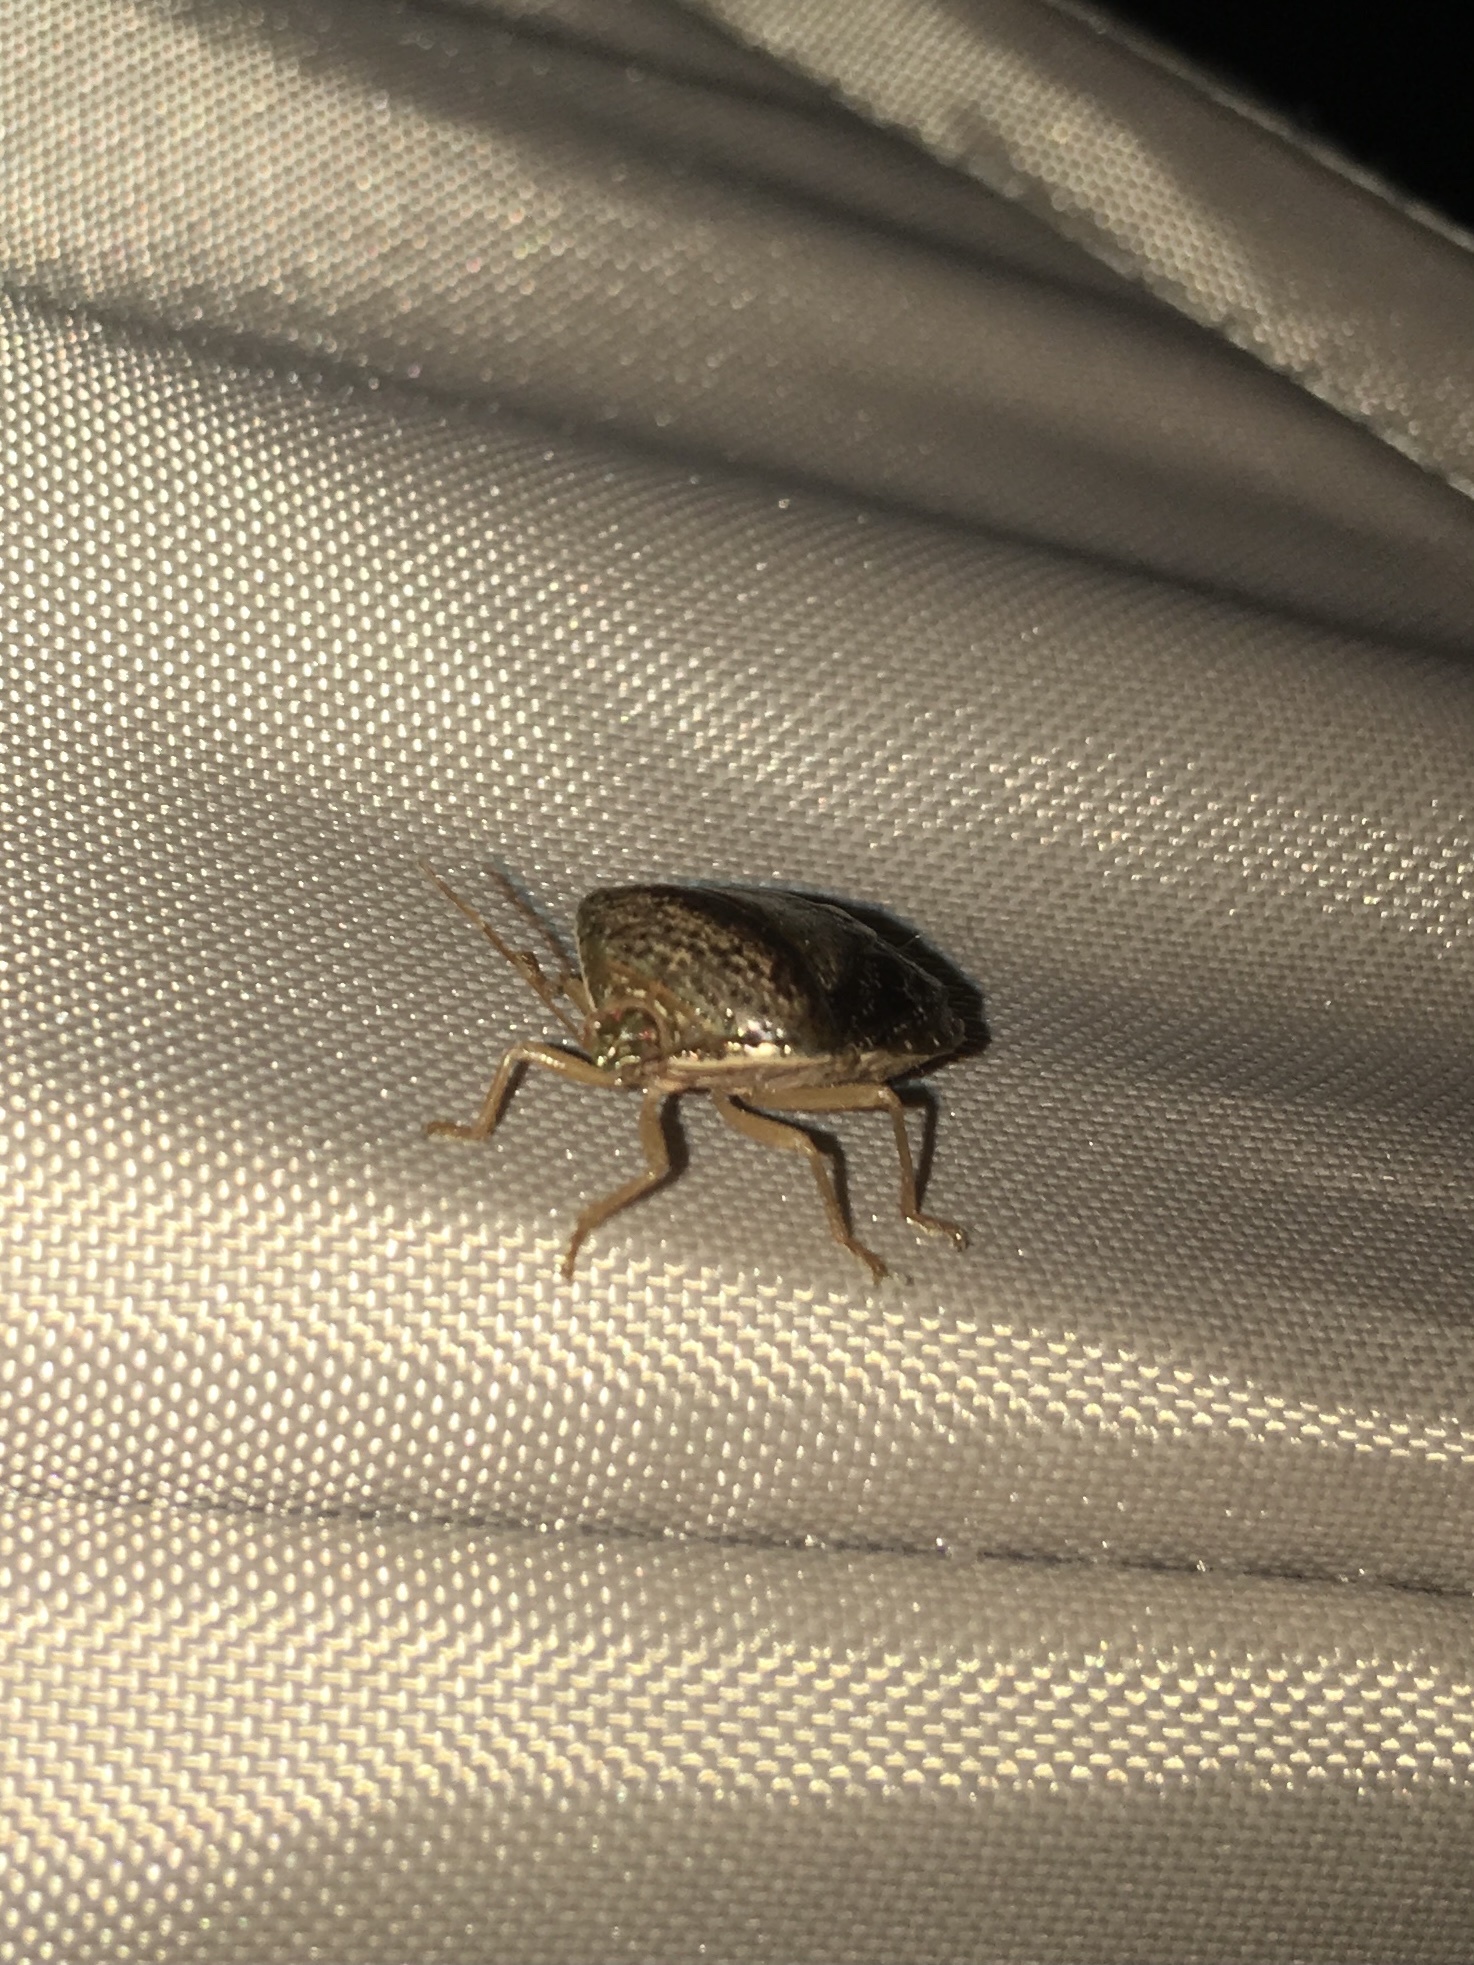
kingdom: Animalia
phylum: Arthropoda
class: Insecta
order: Hemiptera
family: Pentatomidae
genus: Edessa
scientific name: Edessa bifida
